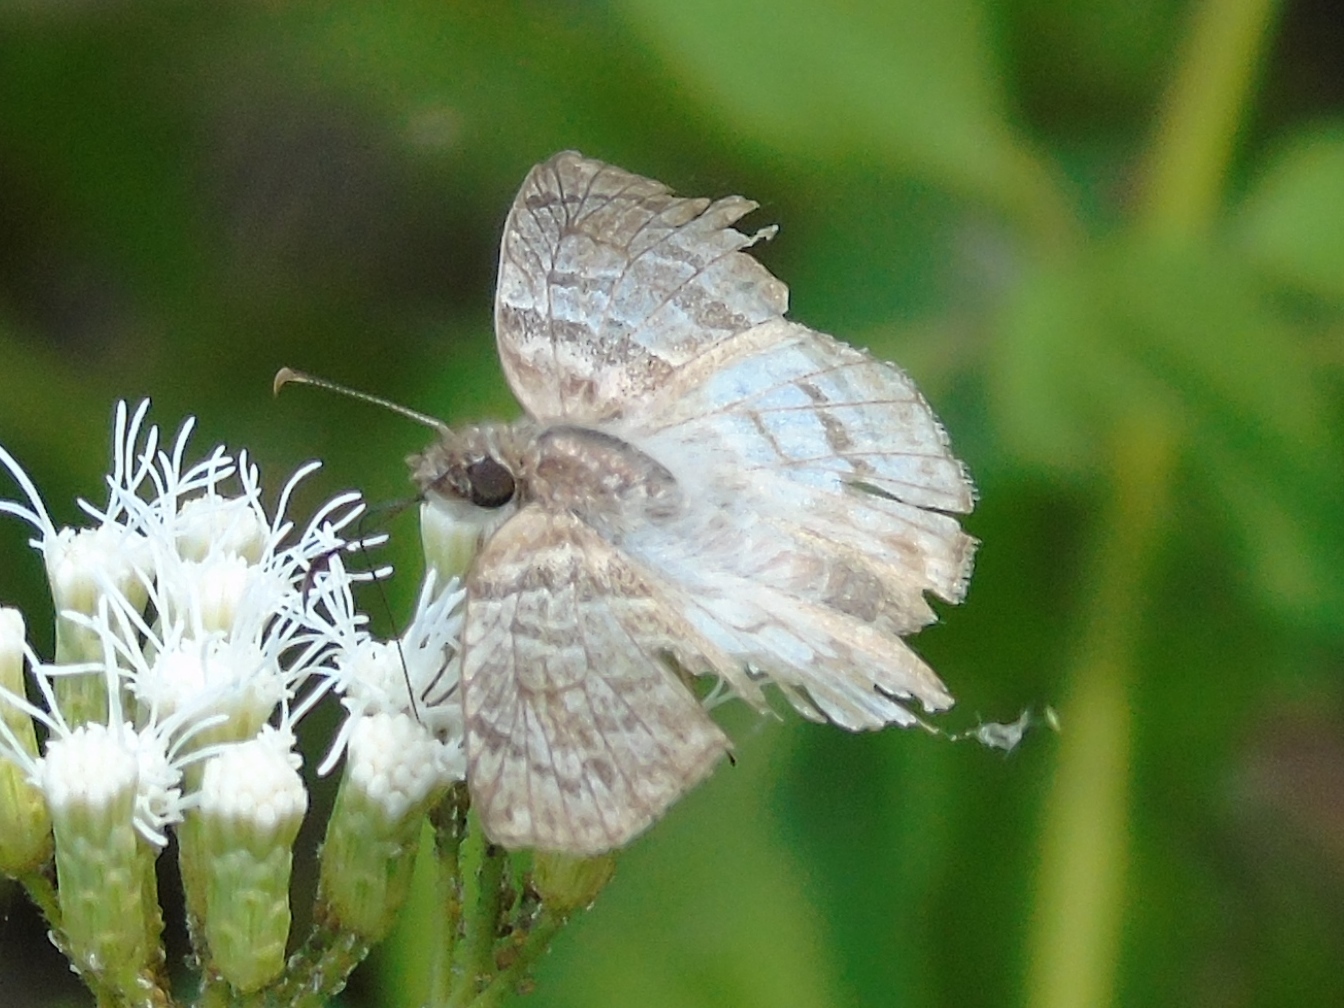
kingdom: Animalia
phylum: Arthropoda
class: Insecta
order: Lepidoptera
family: Hesperiidae
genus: Mylon
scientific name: Mylon pelopidas
